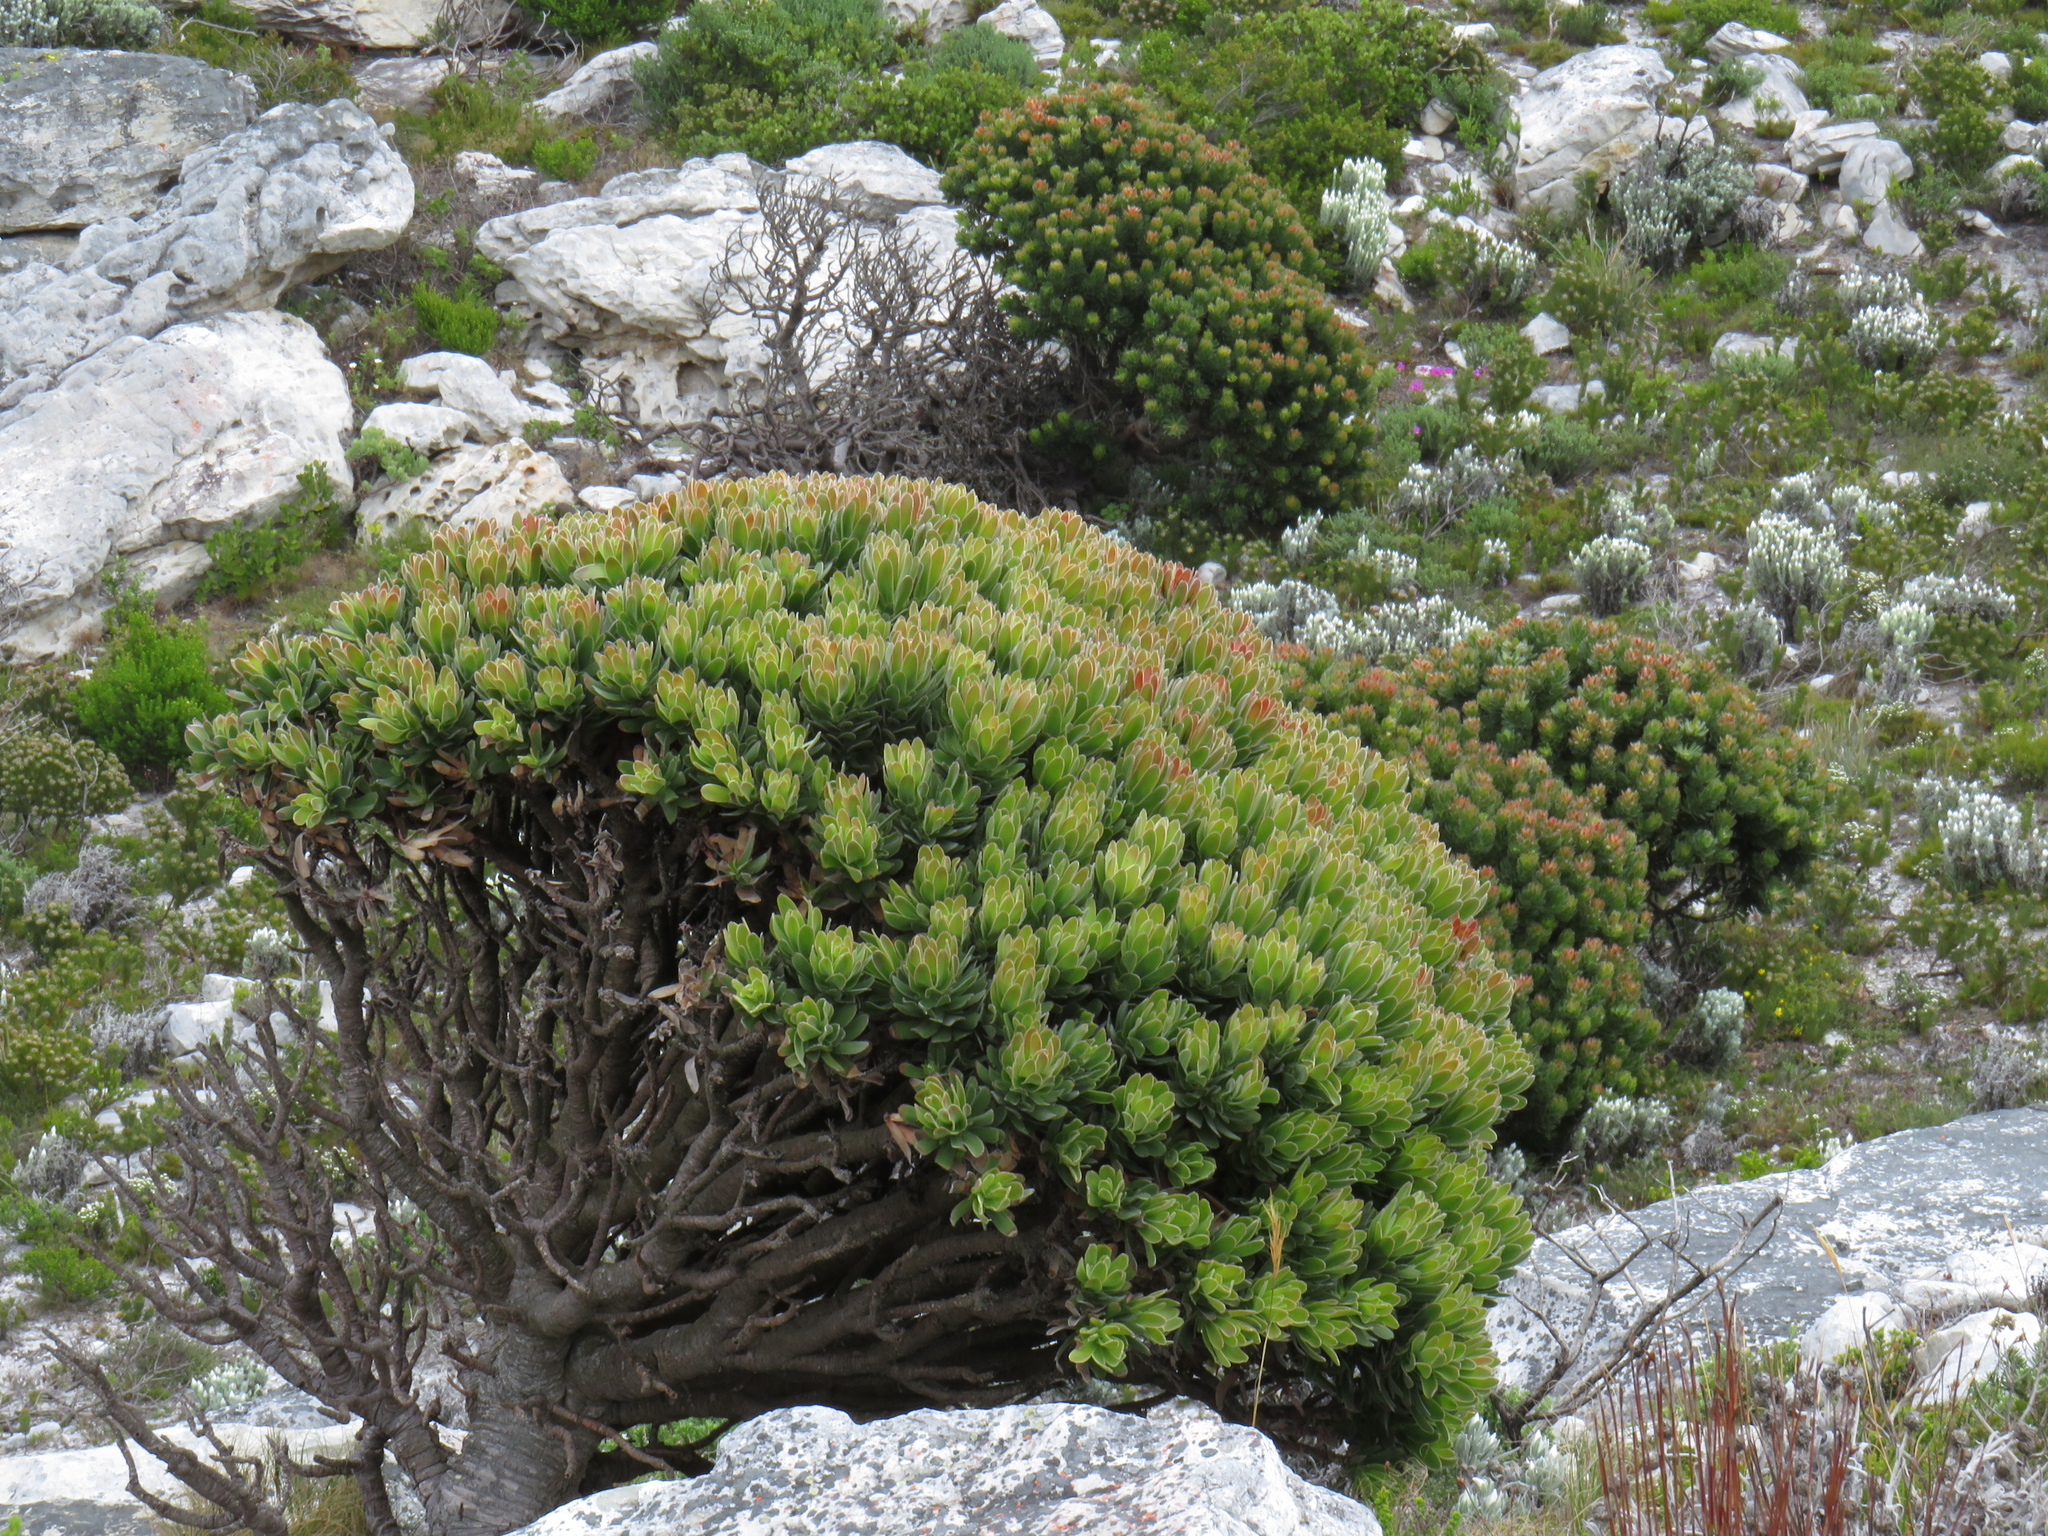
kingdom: Plantae
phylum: Tracheophyta
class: Magnoliopsida
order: Proteales
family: Proteaceae
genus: Mimetes
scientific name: Mimetes fimbriifolius
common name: Fringed bottlebrush
